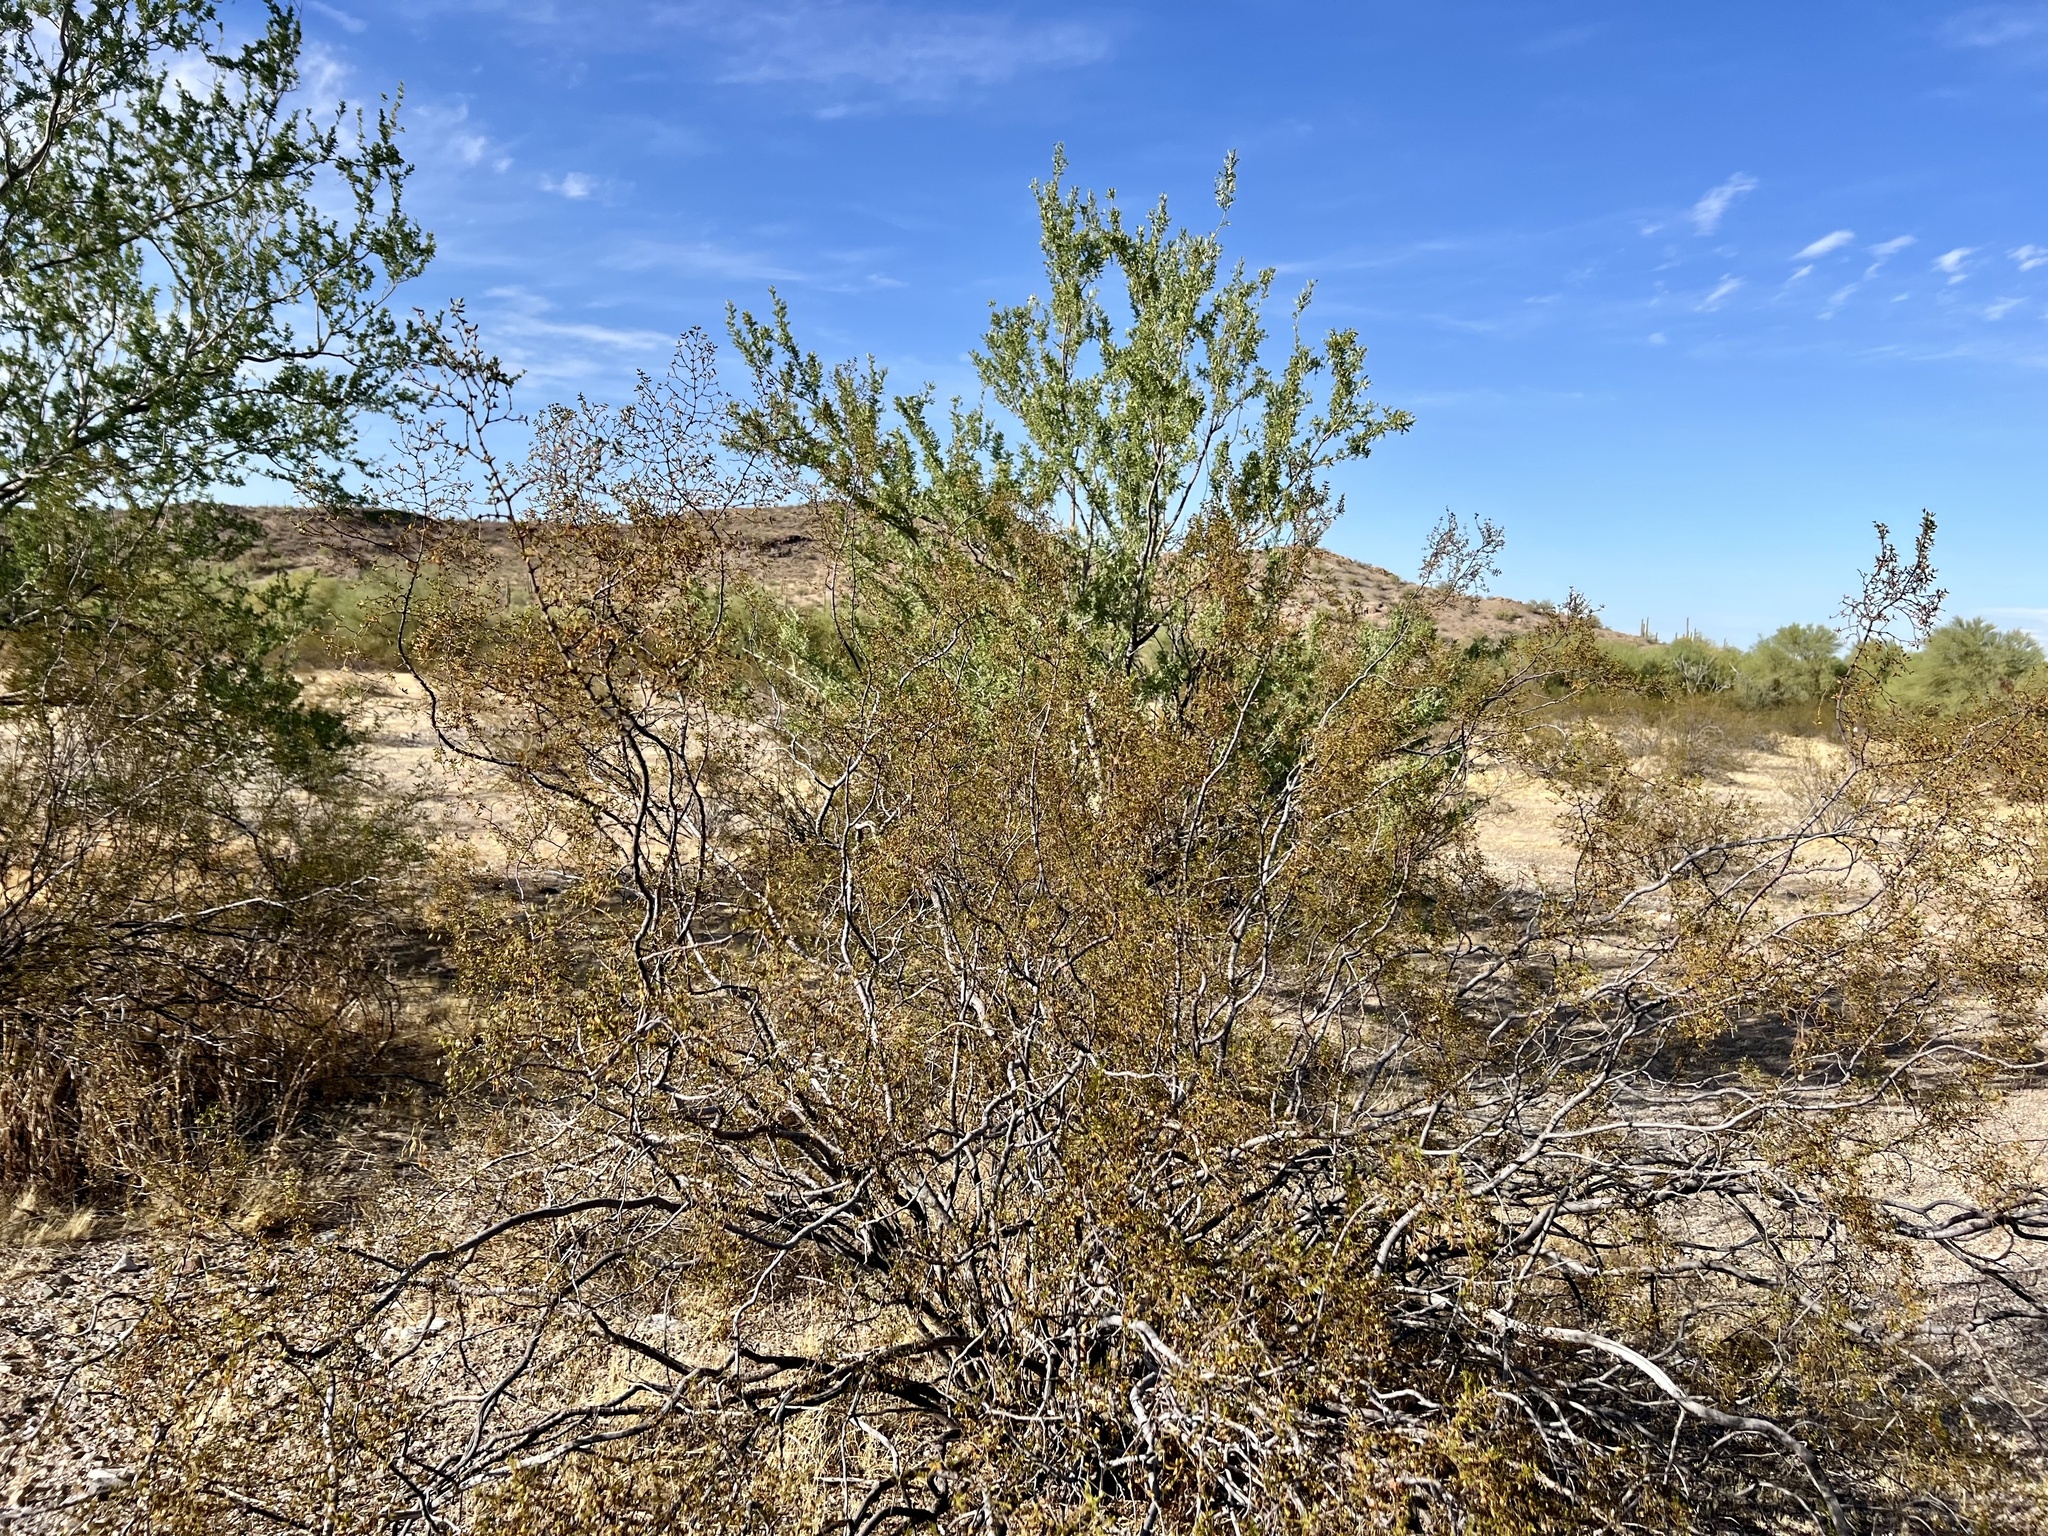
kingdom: Plantae
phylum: Tracheophyta
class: Magnoliopsida
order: Zygophyllales
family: Zygophyllaceae
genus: Larrea
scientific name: Larrea tridentata
